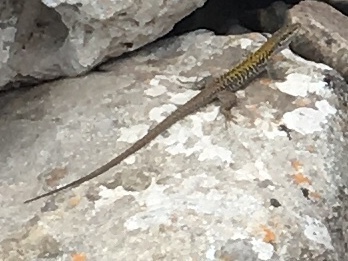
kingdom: Animalia
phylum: Chordata
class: Squamata
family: Lacertidae
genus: Podarcis
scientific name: Podarcis siculus
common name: Italian wall lizard
